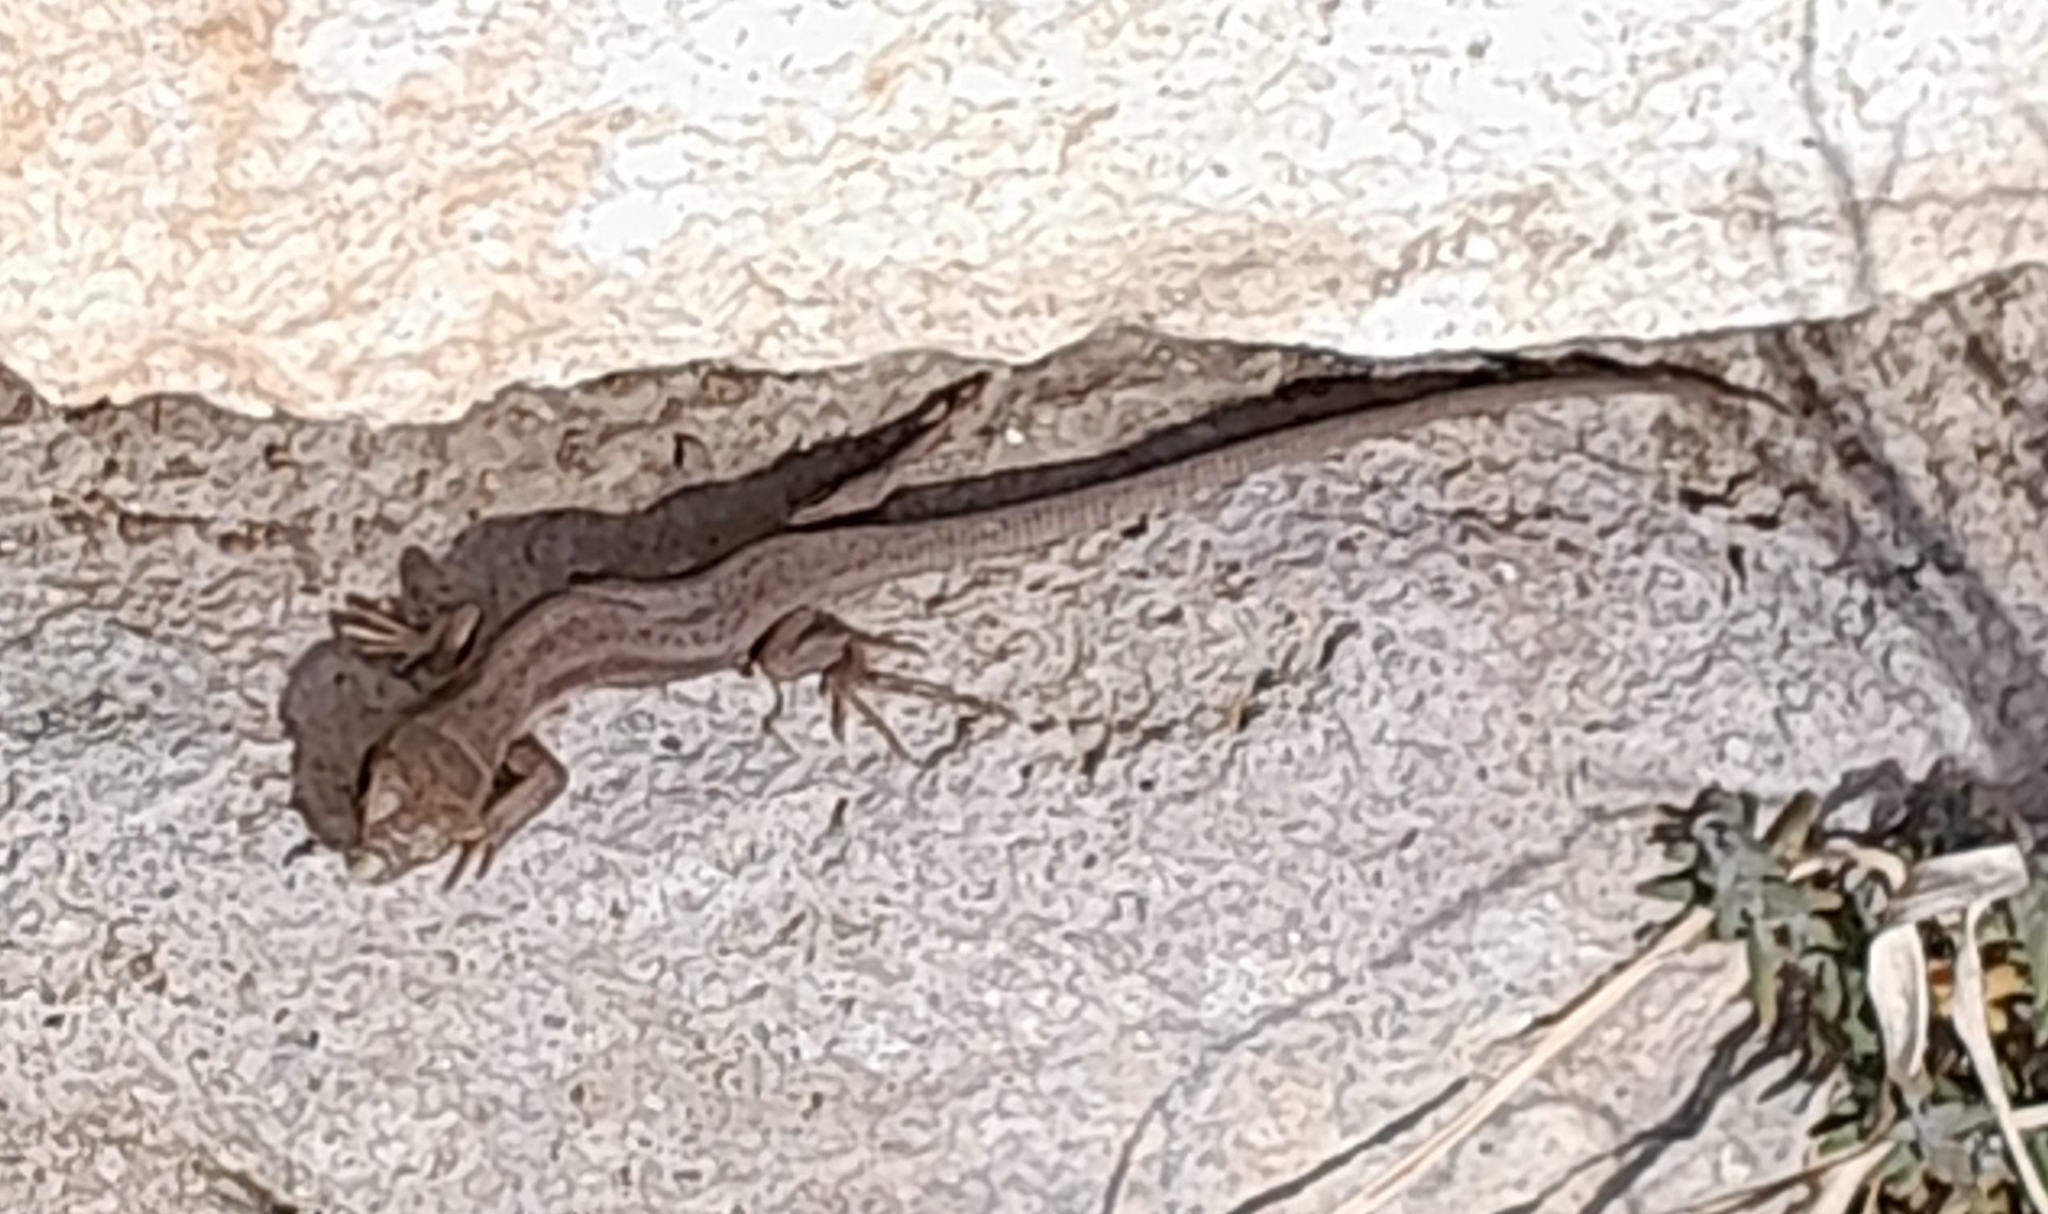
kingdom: Animalia
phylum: Chordata
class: Squamata
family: Lacertidae
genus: Lacerta
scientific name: Lacerta viridis
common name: European green lizard
